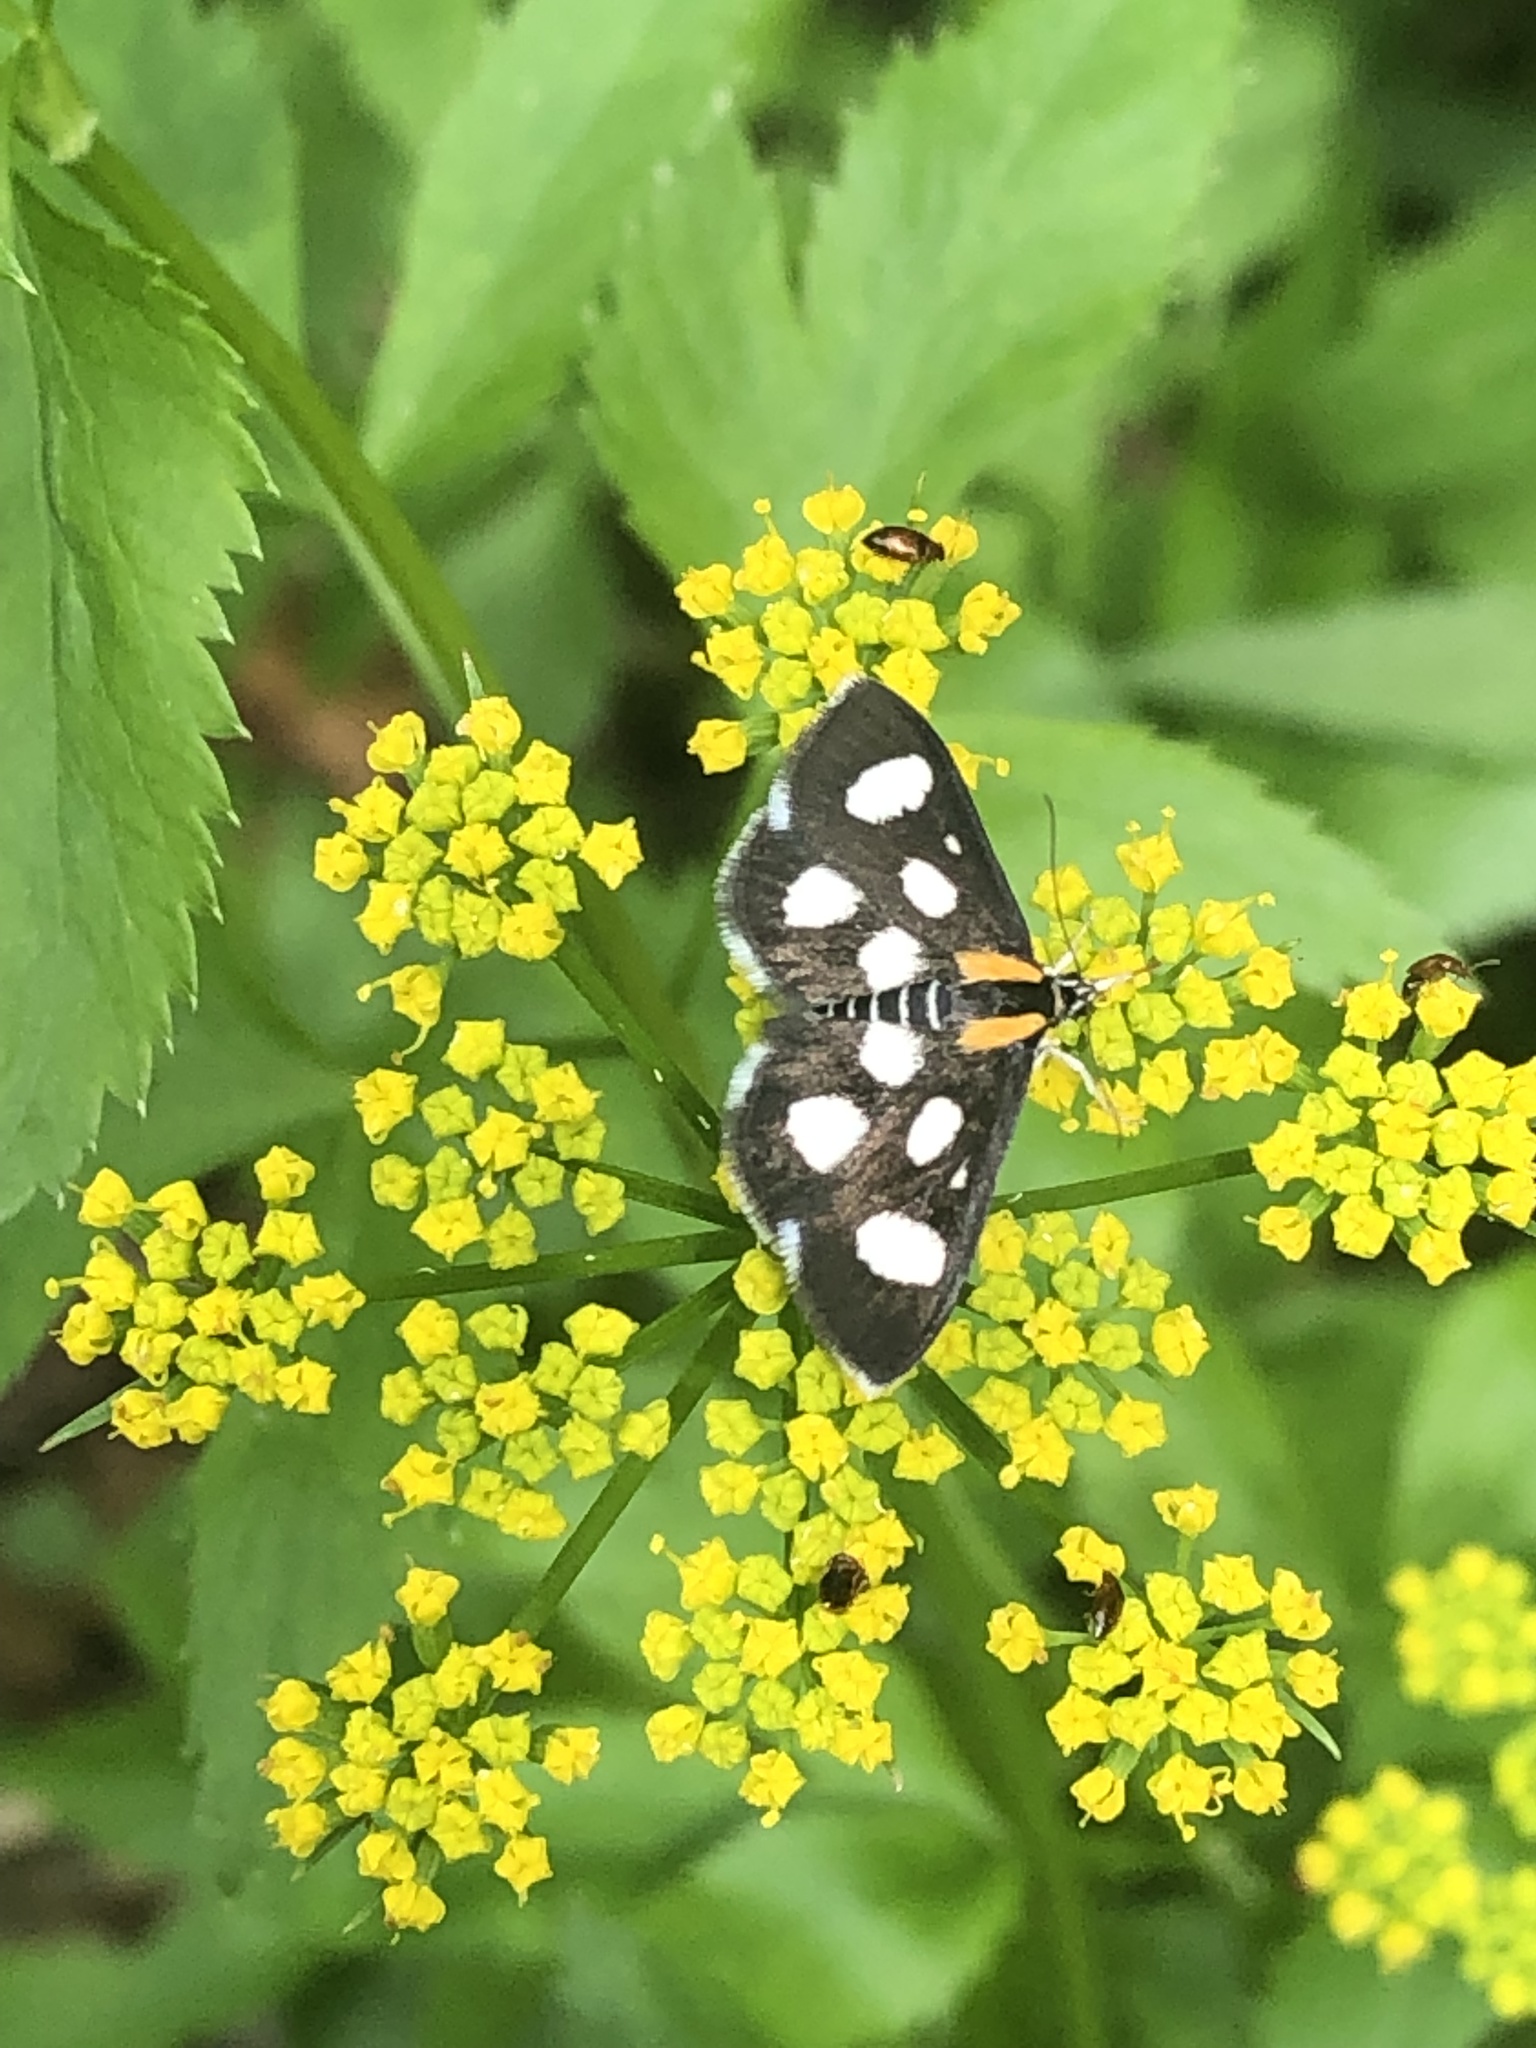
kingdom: Animalia
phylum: Arthropoda
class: Insecta
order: Lepidoptera
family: Crambidae
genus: Anania
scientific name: Anania funebris
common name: White-spotted sable moth
